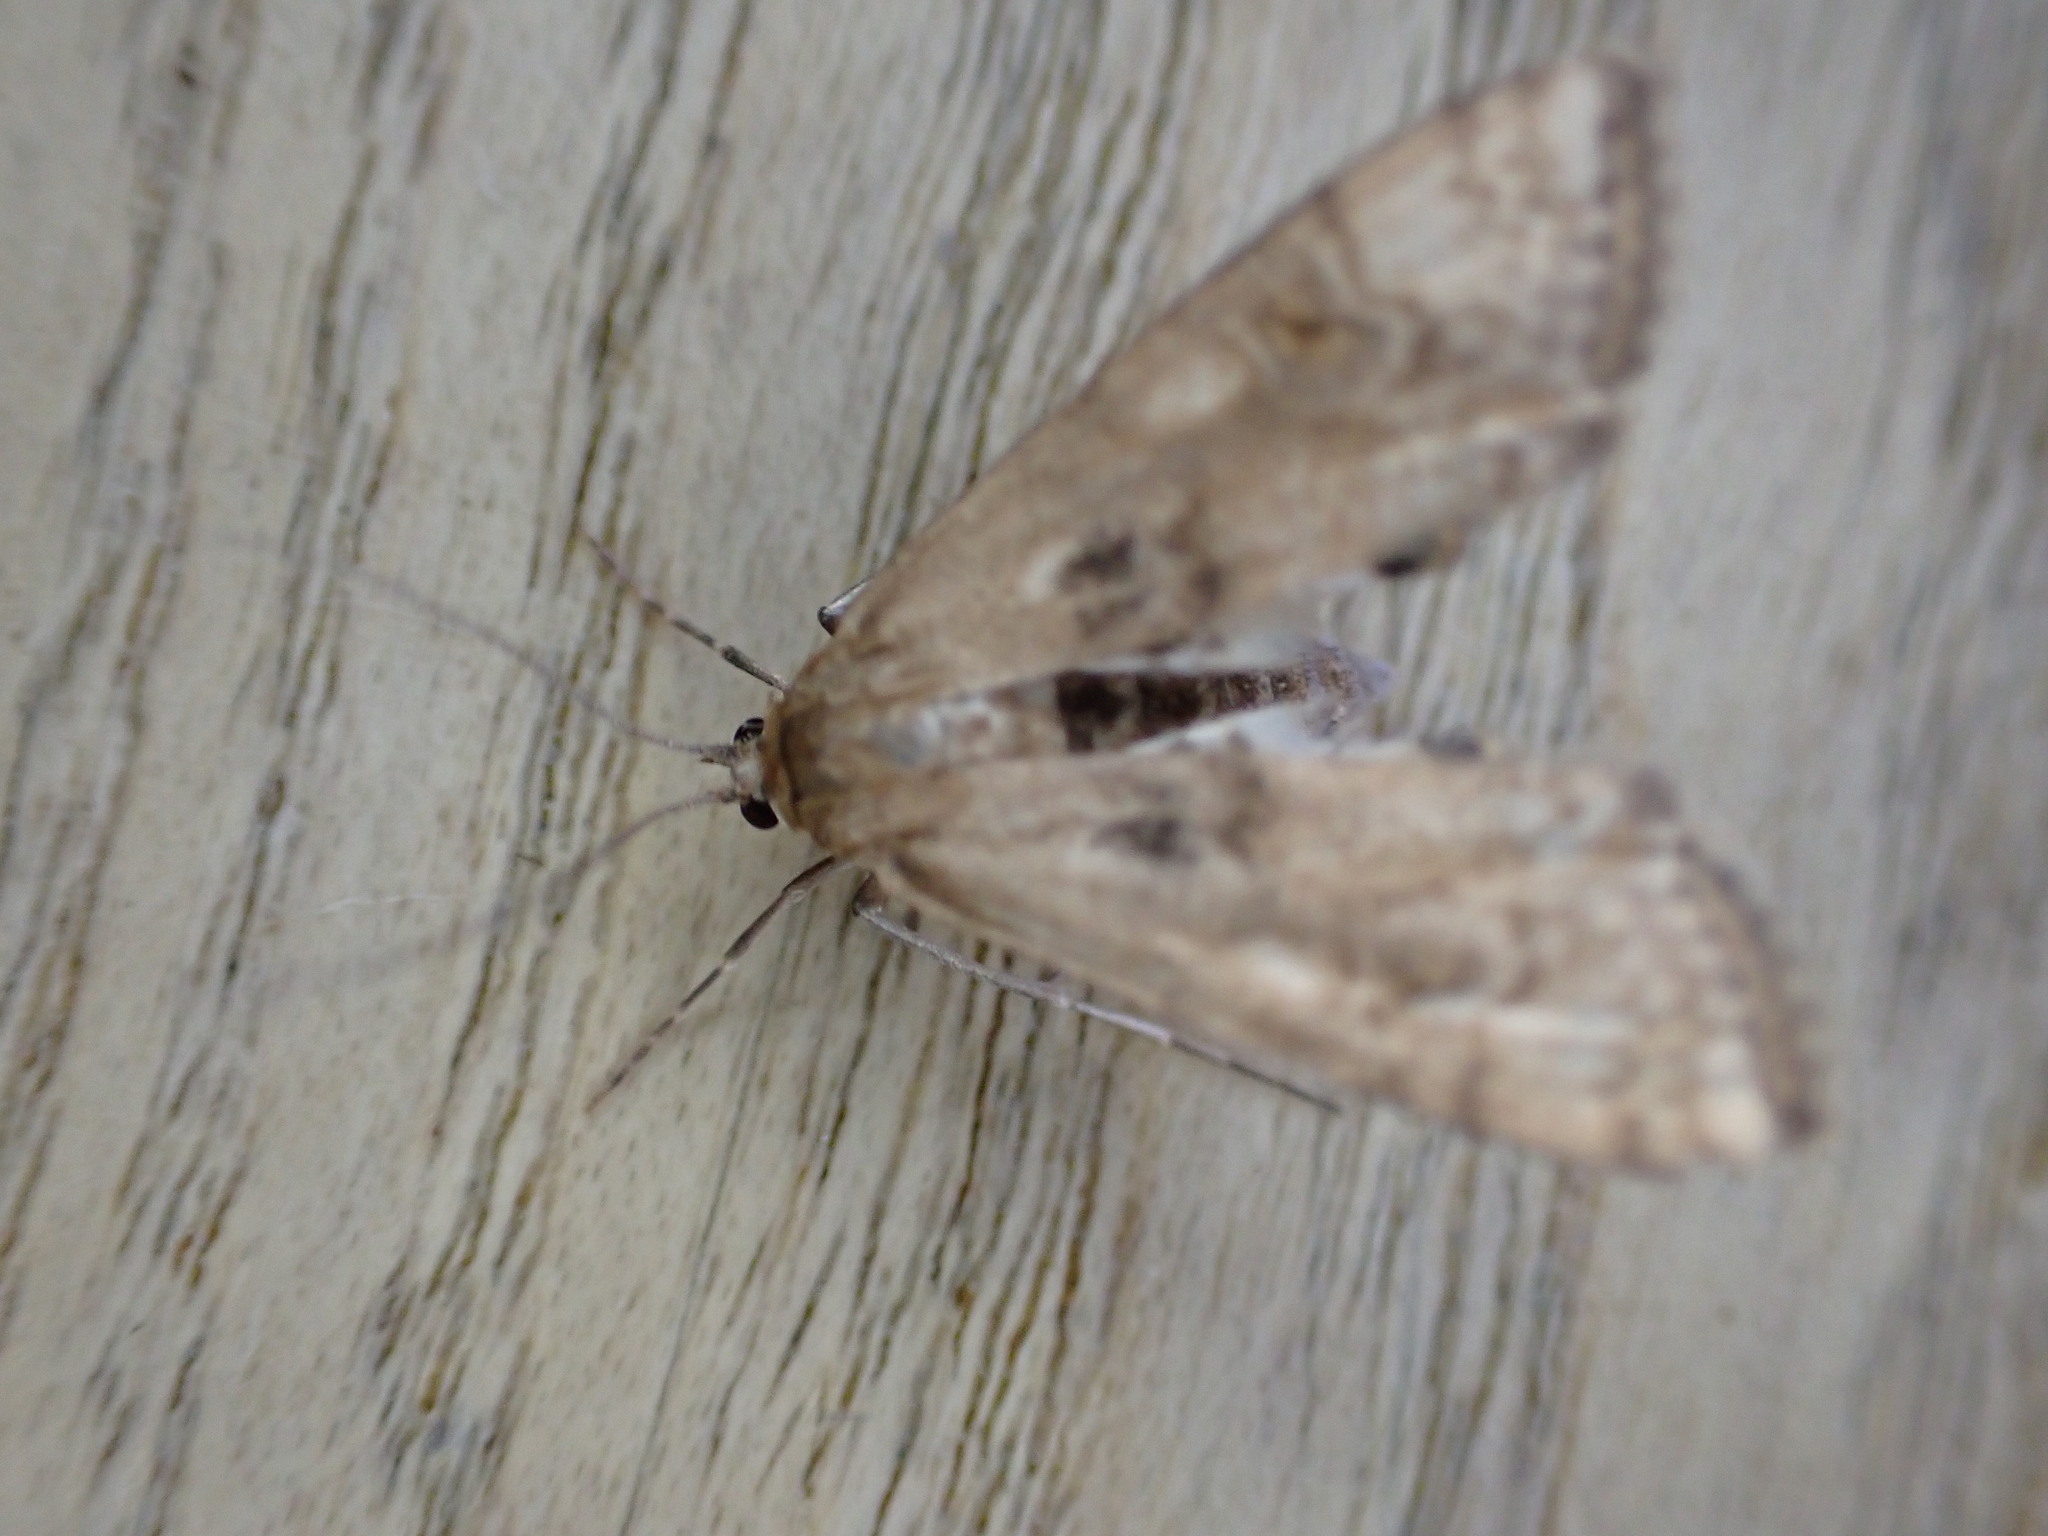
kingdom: Animalia
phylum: Arthropoda
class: Insecta
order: Lepidoptera
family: Crambidae
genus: Cataclysta
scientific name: Cataclysta lemnata
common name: Small china-mark
